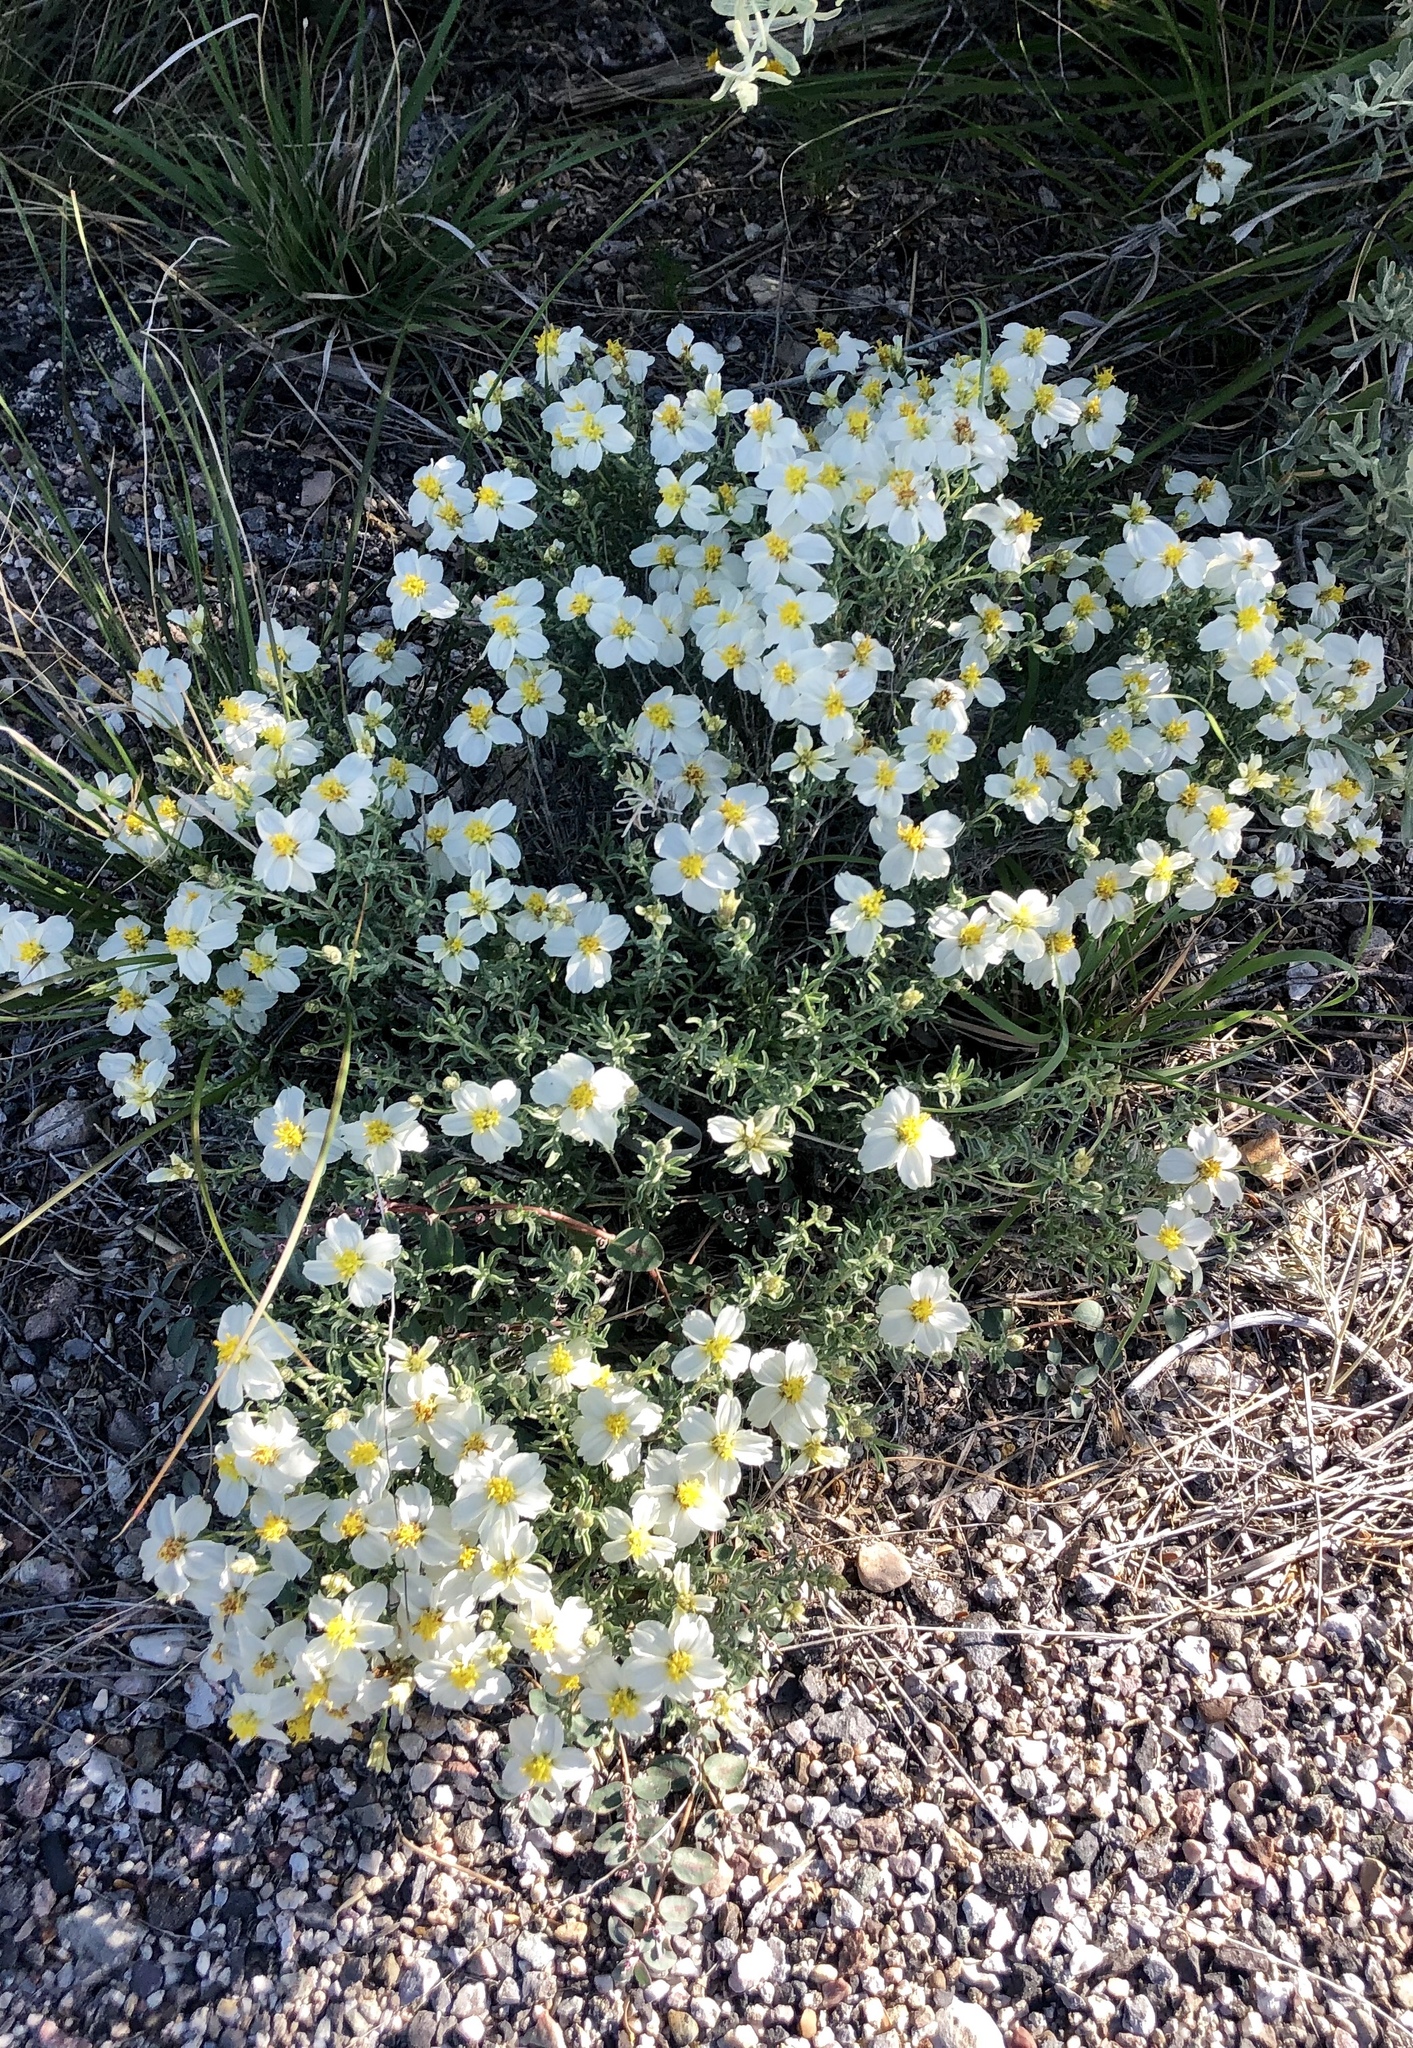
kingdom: Plantae
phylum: Tracheophyta
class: Magnoliopsida
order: Asterales
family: Asteraceae
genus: Zinnia
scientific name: Zinnia acerosa
